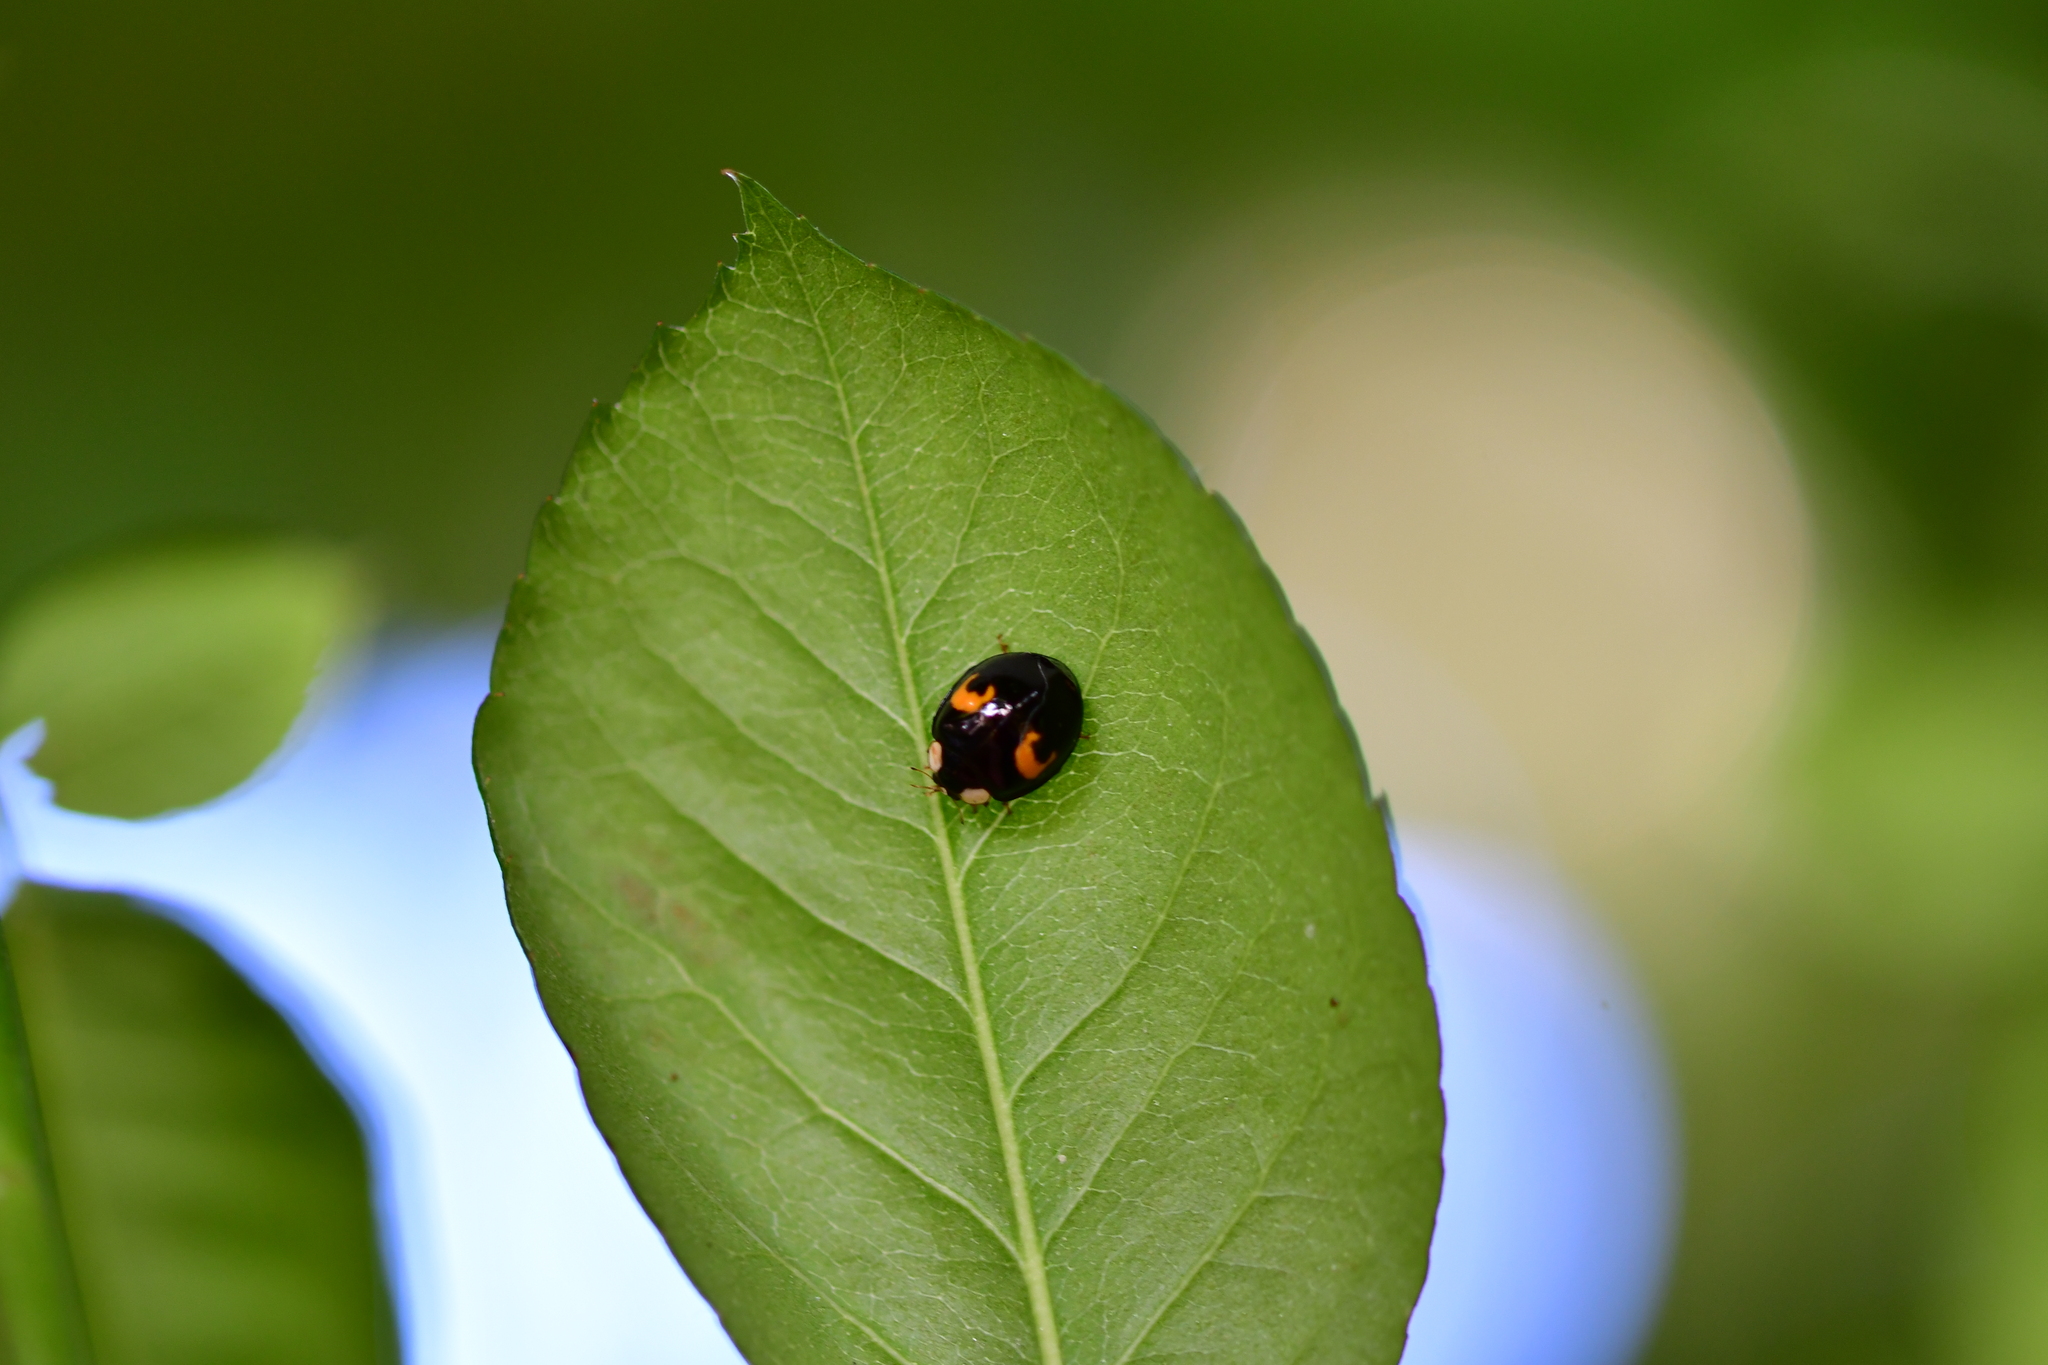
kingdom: Animalia
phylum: Arthropoda
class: Insecta
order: Coleoptera
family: Coccinellidae
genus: Harmonia
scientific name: Harmonia axyridis
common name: Harlequin ladybird
